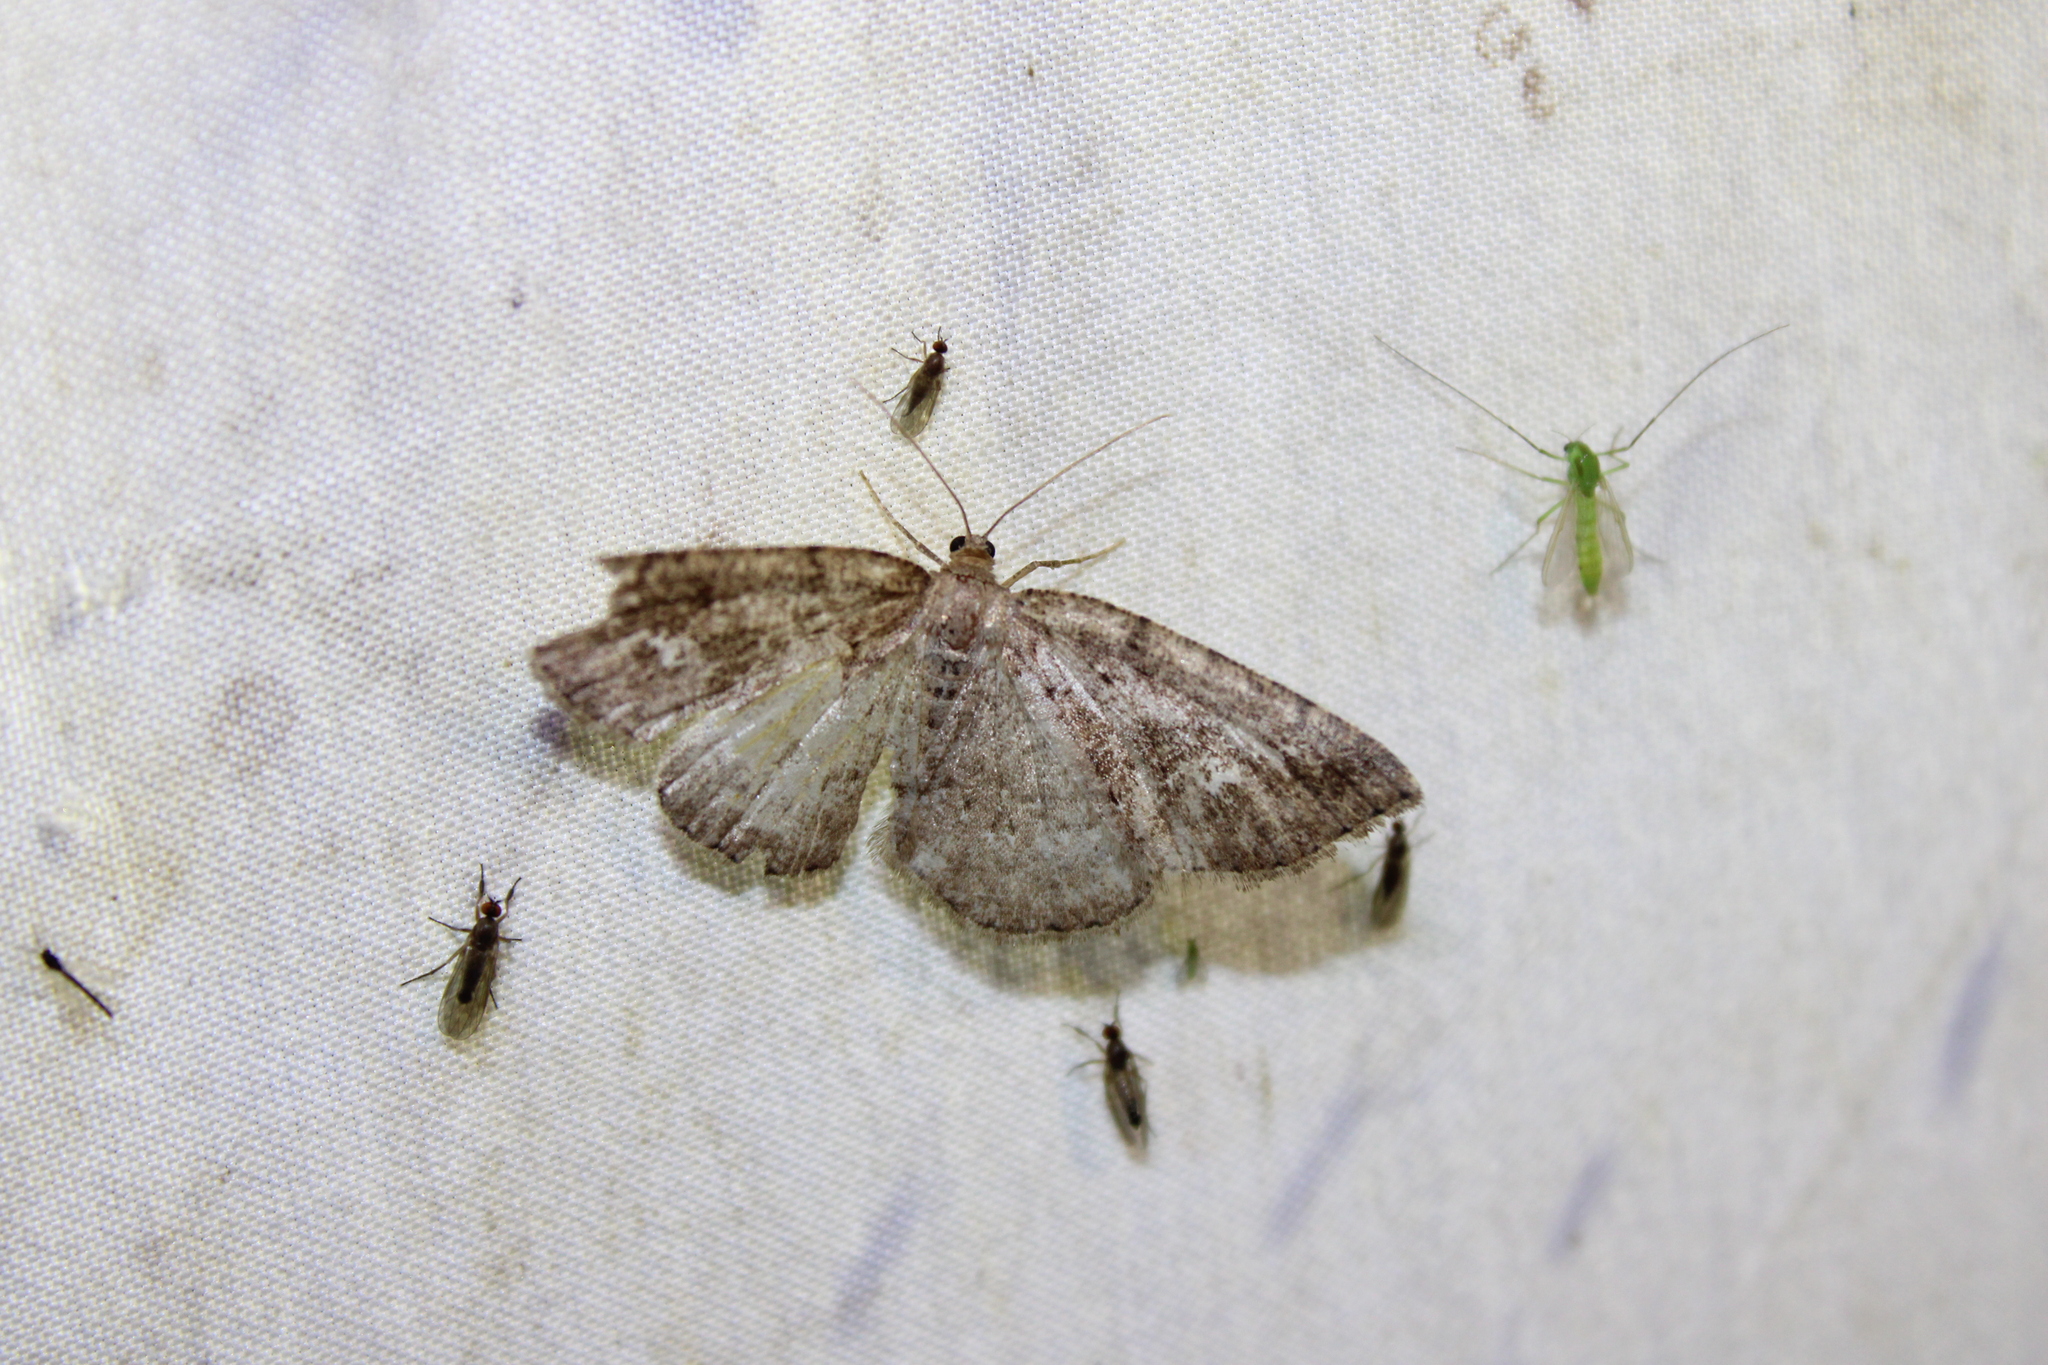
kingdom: Animalia
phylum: Arthropoda
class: Insecta
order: Lepidoptera
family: Geometridae
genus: Homochlodes
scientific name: Homochlodes fritillaria
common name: Pale homochlodes
